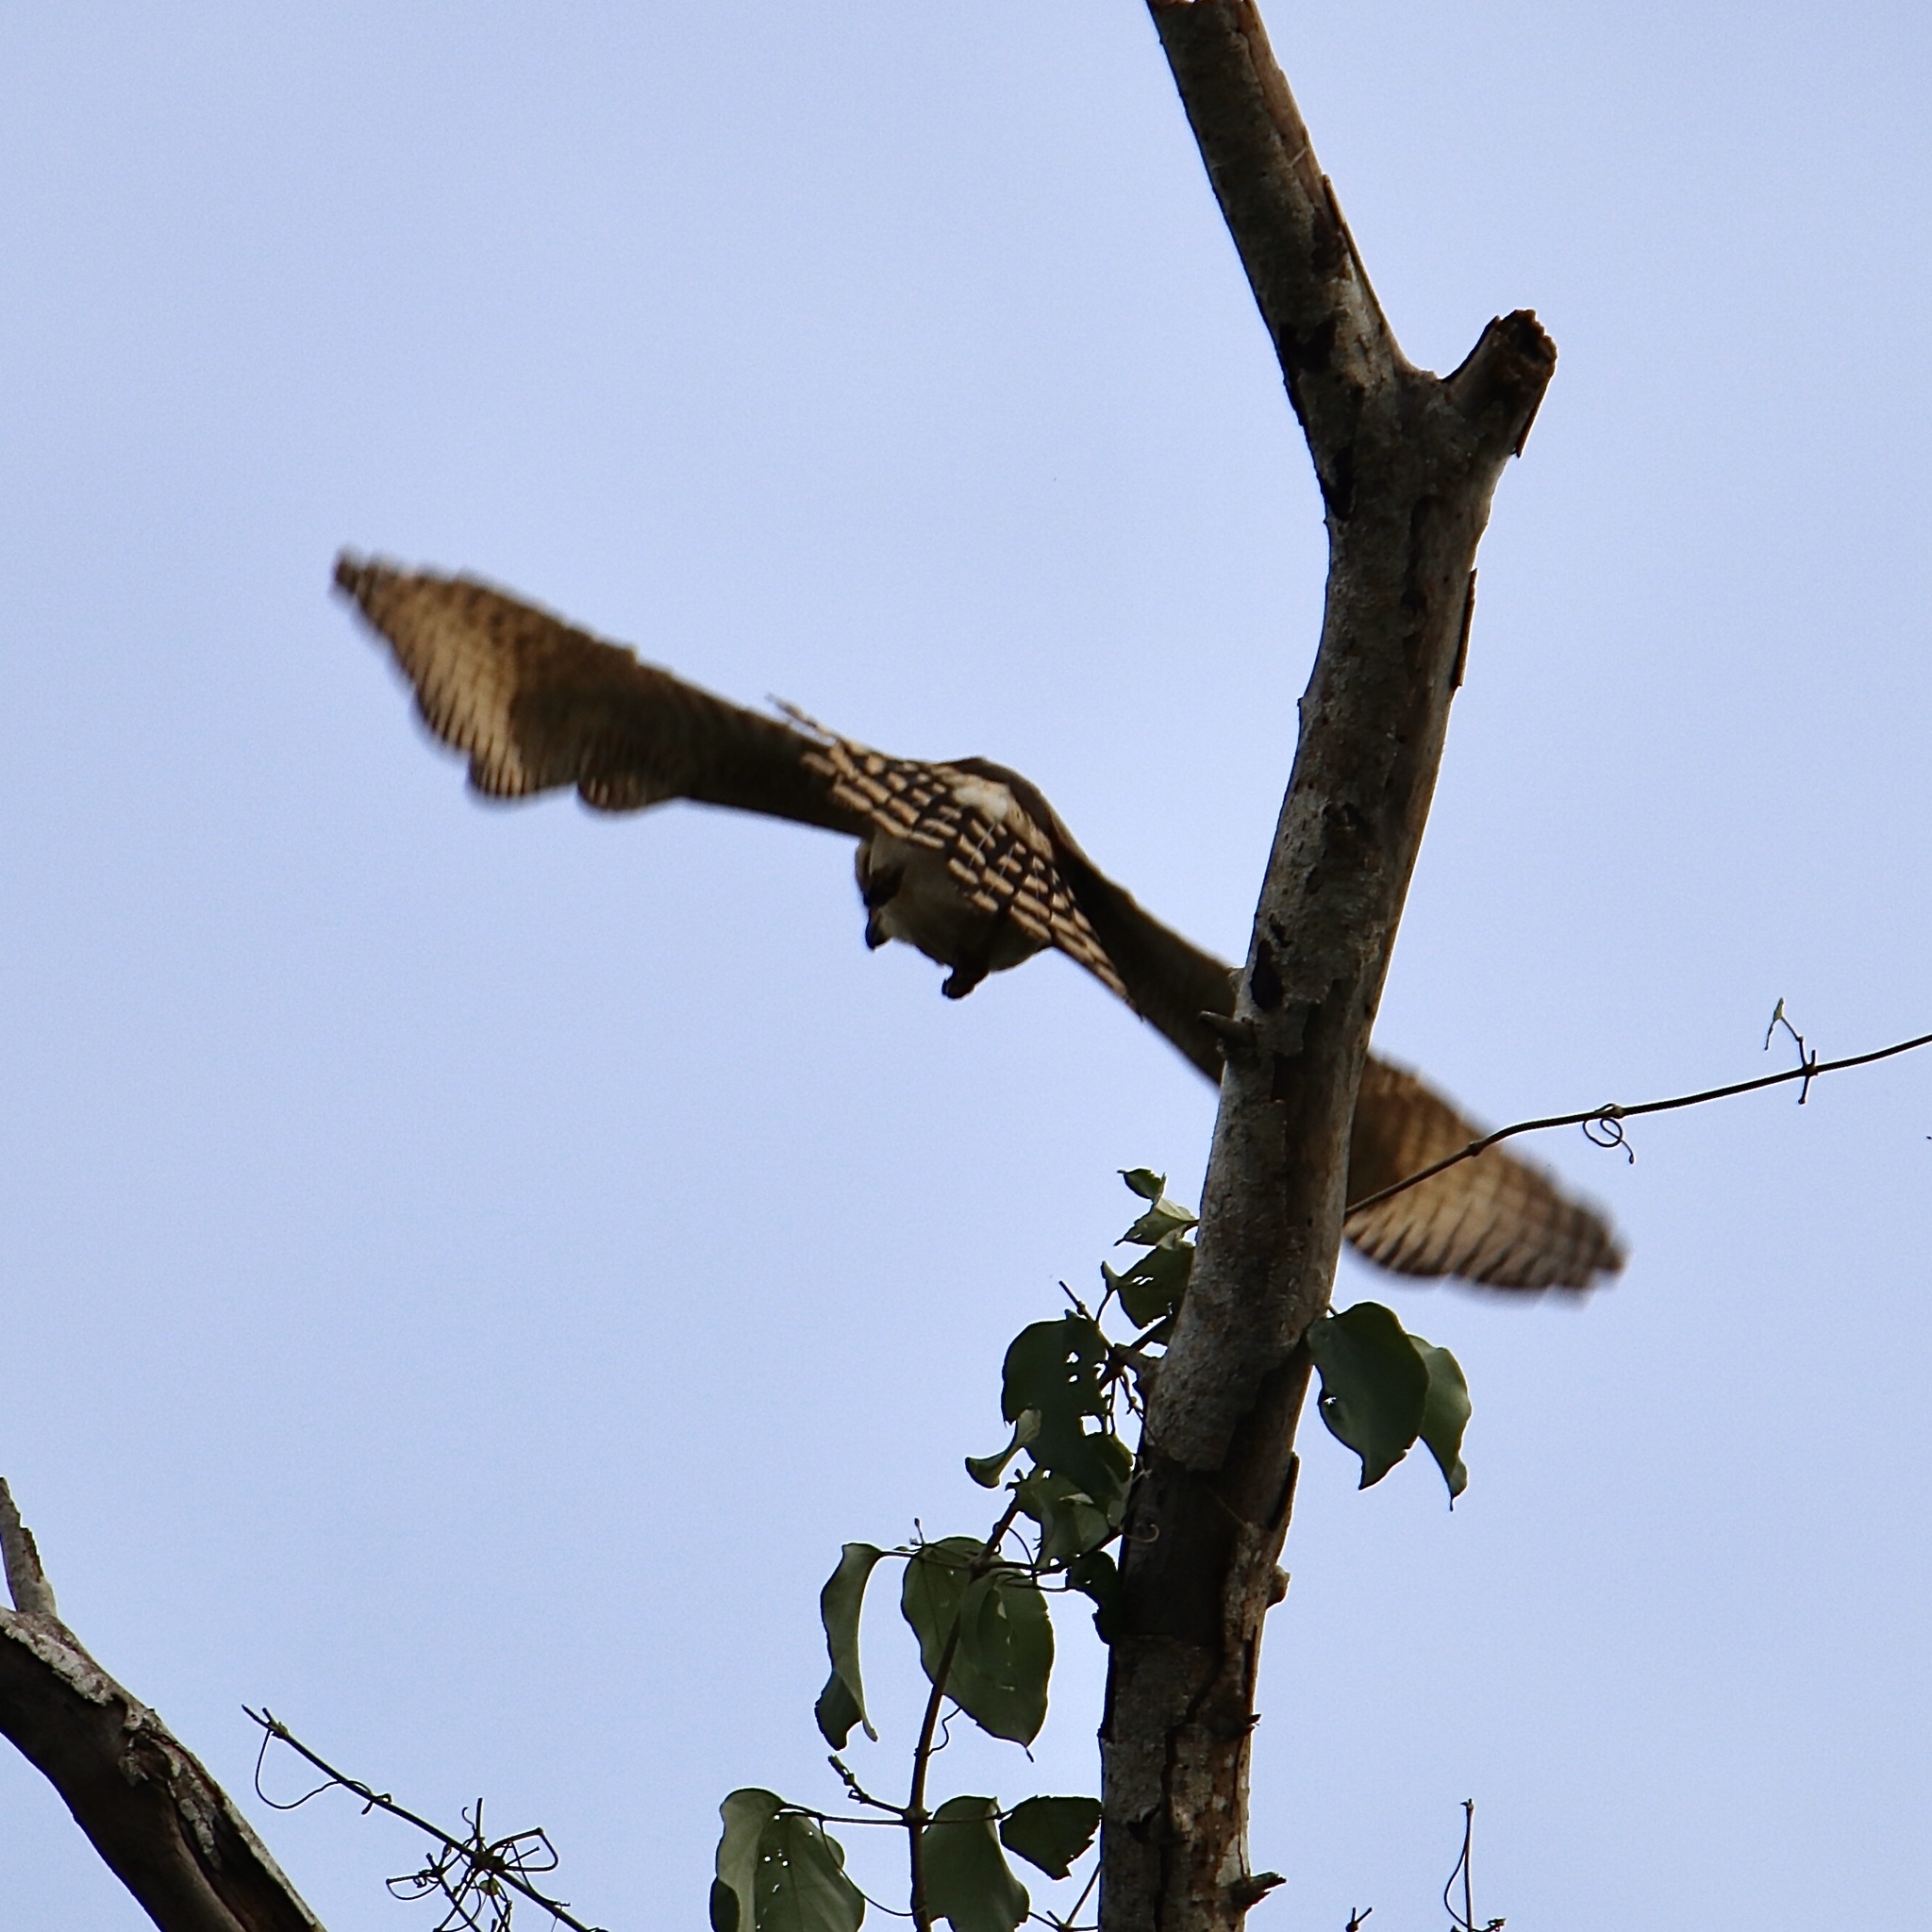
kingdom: Animalia
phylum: Chordata
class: Aves
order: Falconiformes
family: Falconidae
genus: Herpetotheres
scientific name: Herpetotheres cachinnans
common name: Laughing falcon
